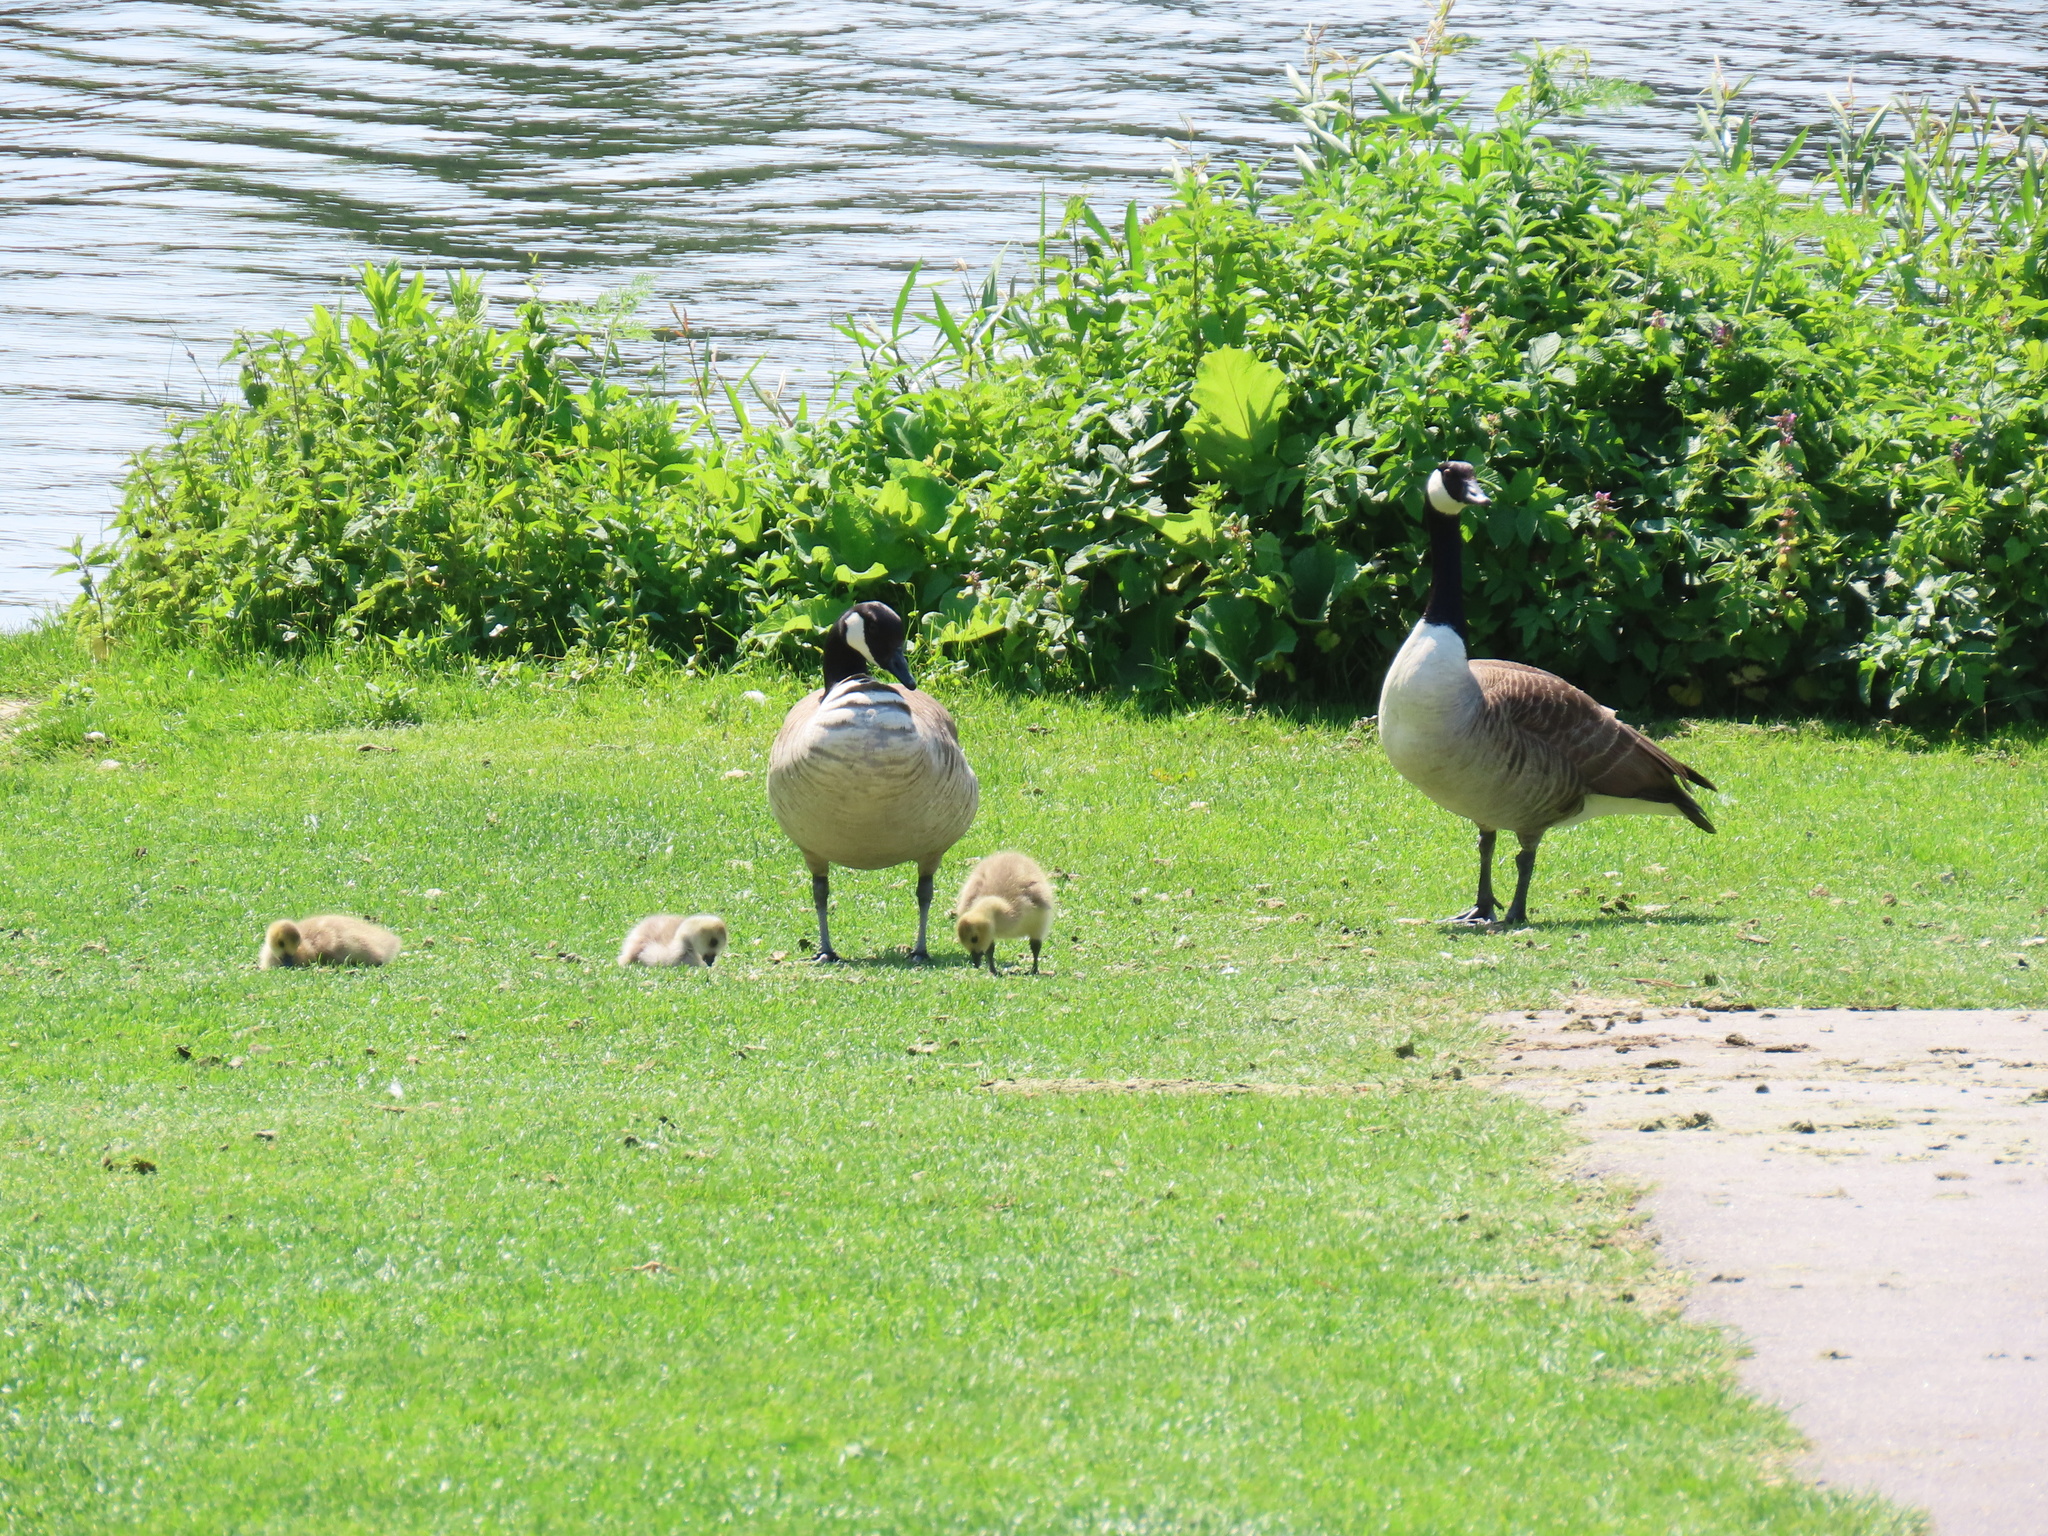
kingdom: Animalia
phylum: Chordata
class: Aves
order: Anseriformes
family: Anatidae
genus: Branta
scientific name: Branta canadensis
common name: Canada goose
